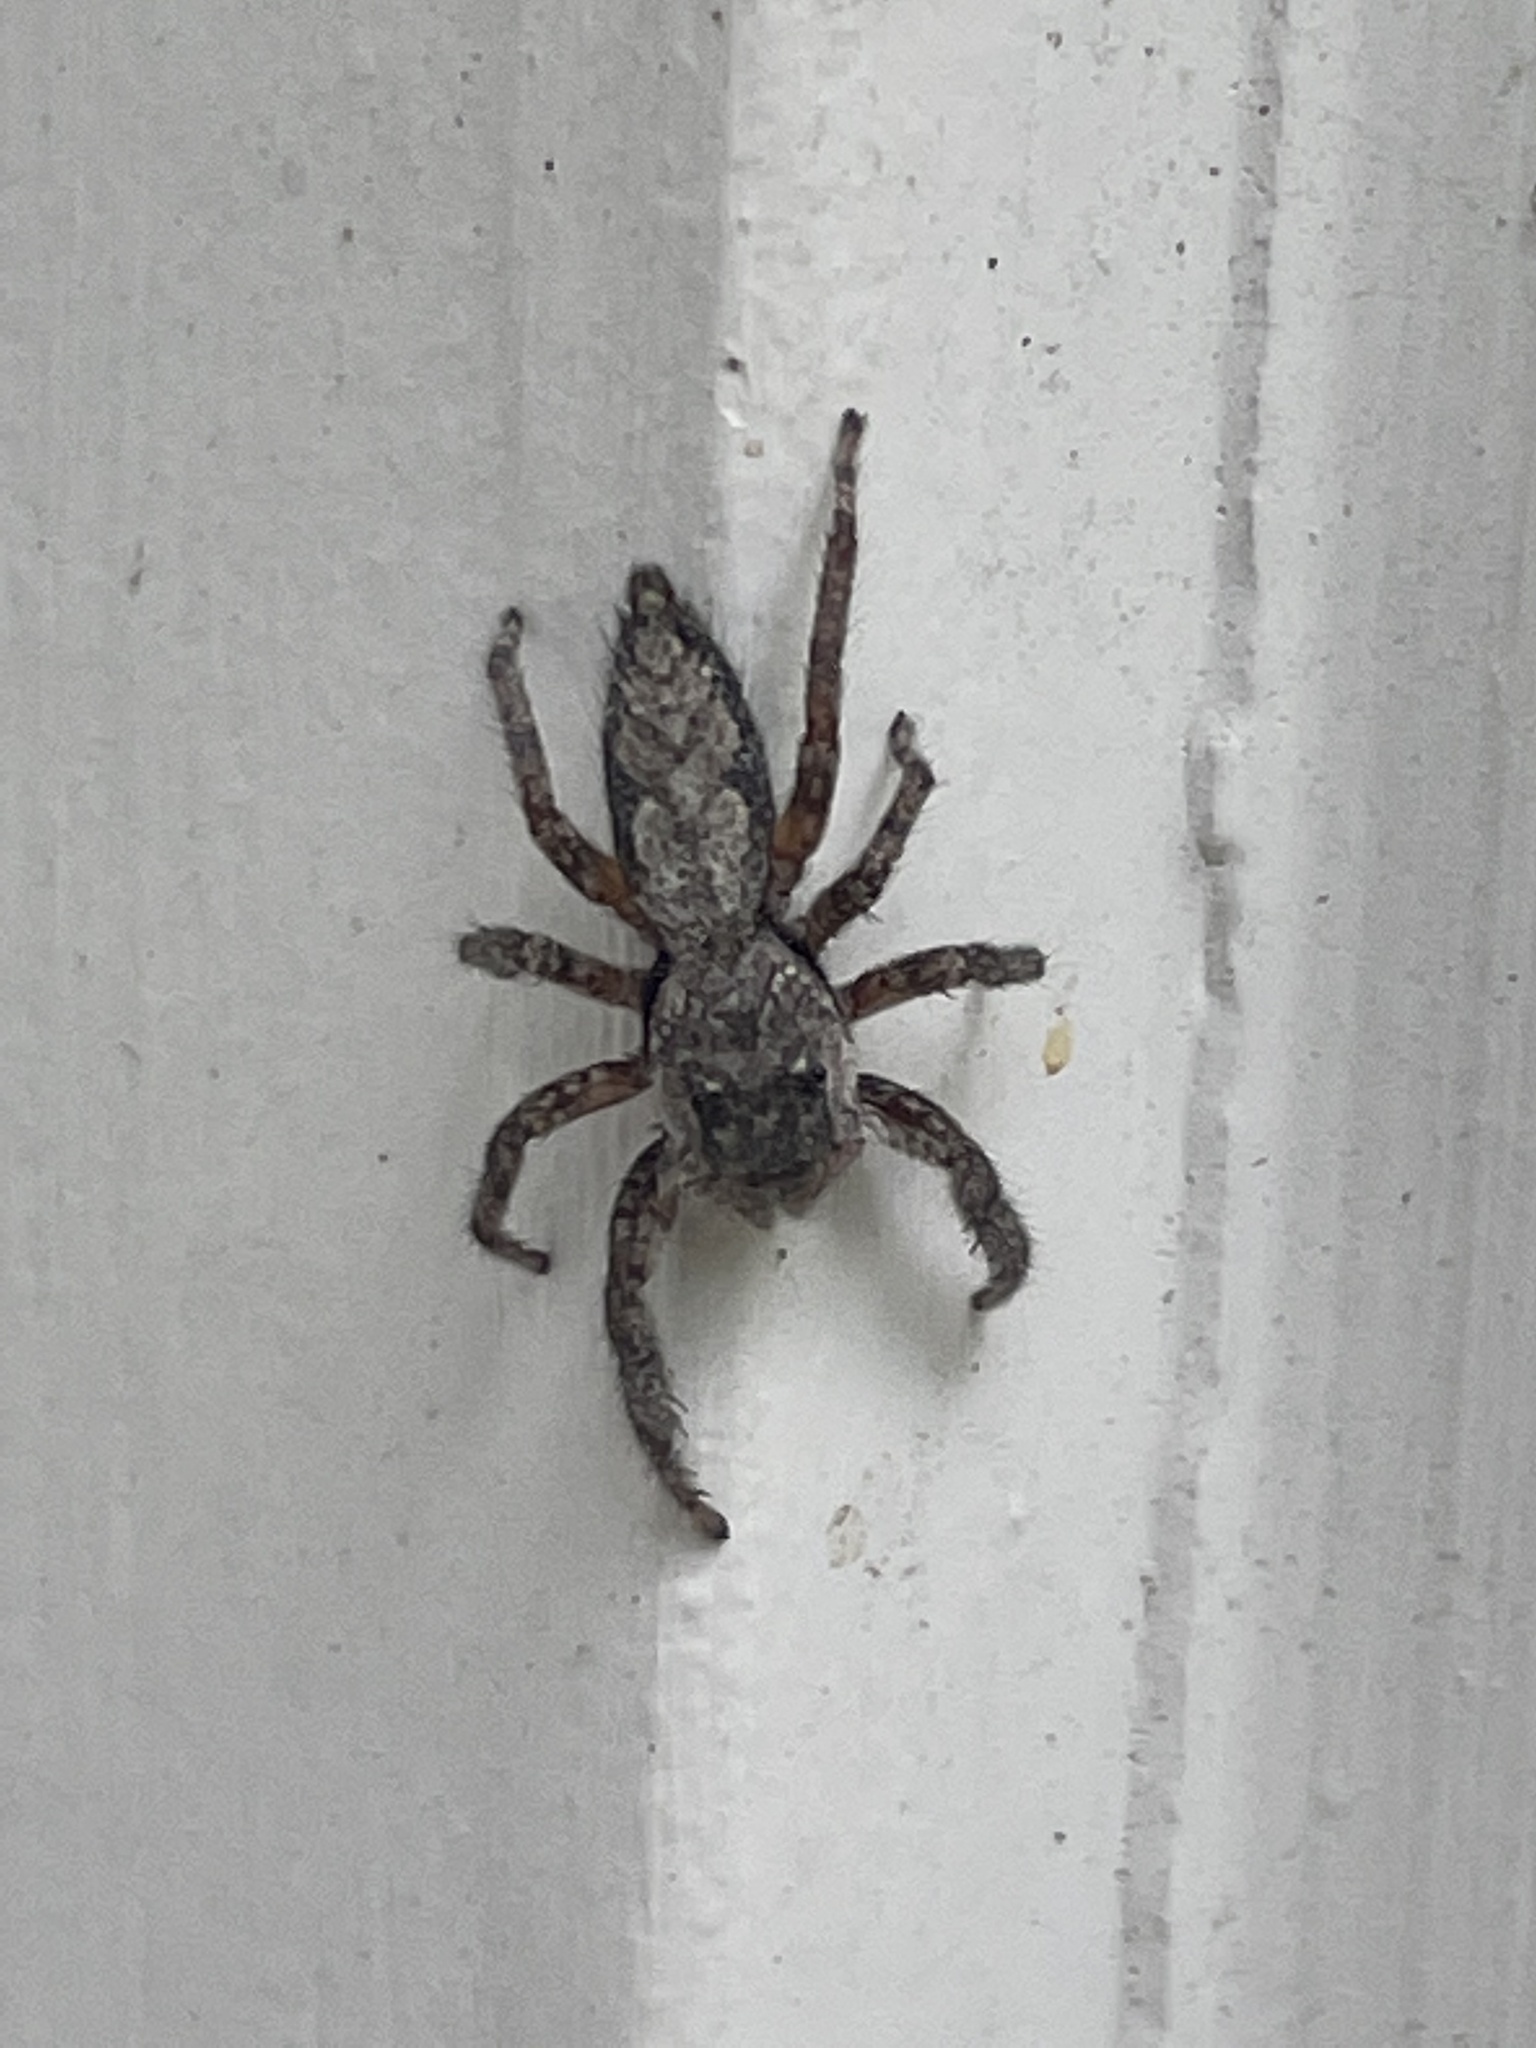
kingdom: Animalia
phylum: Arthropoda
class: Arachnida
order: Araneae
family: Salticidae
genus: Platycryptus
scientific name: Platycryptus undatus
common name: Tan jumping spider
